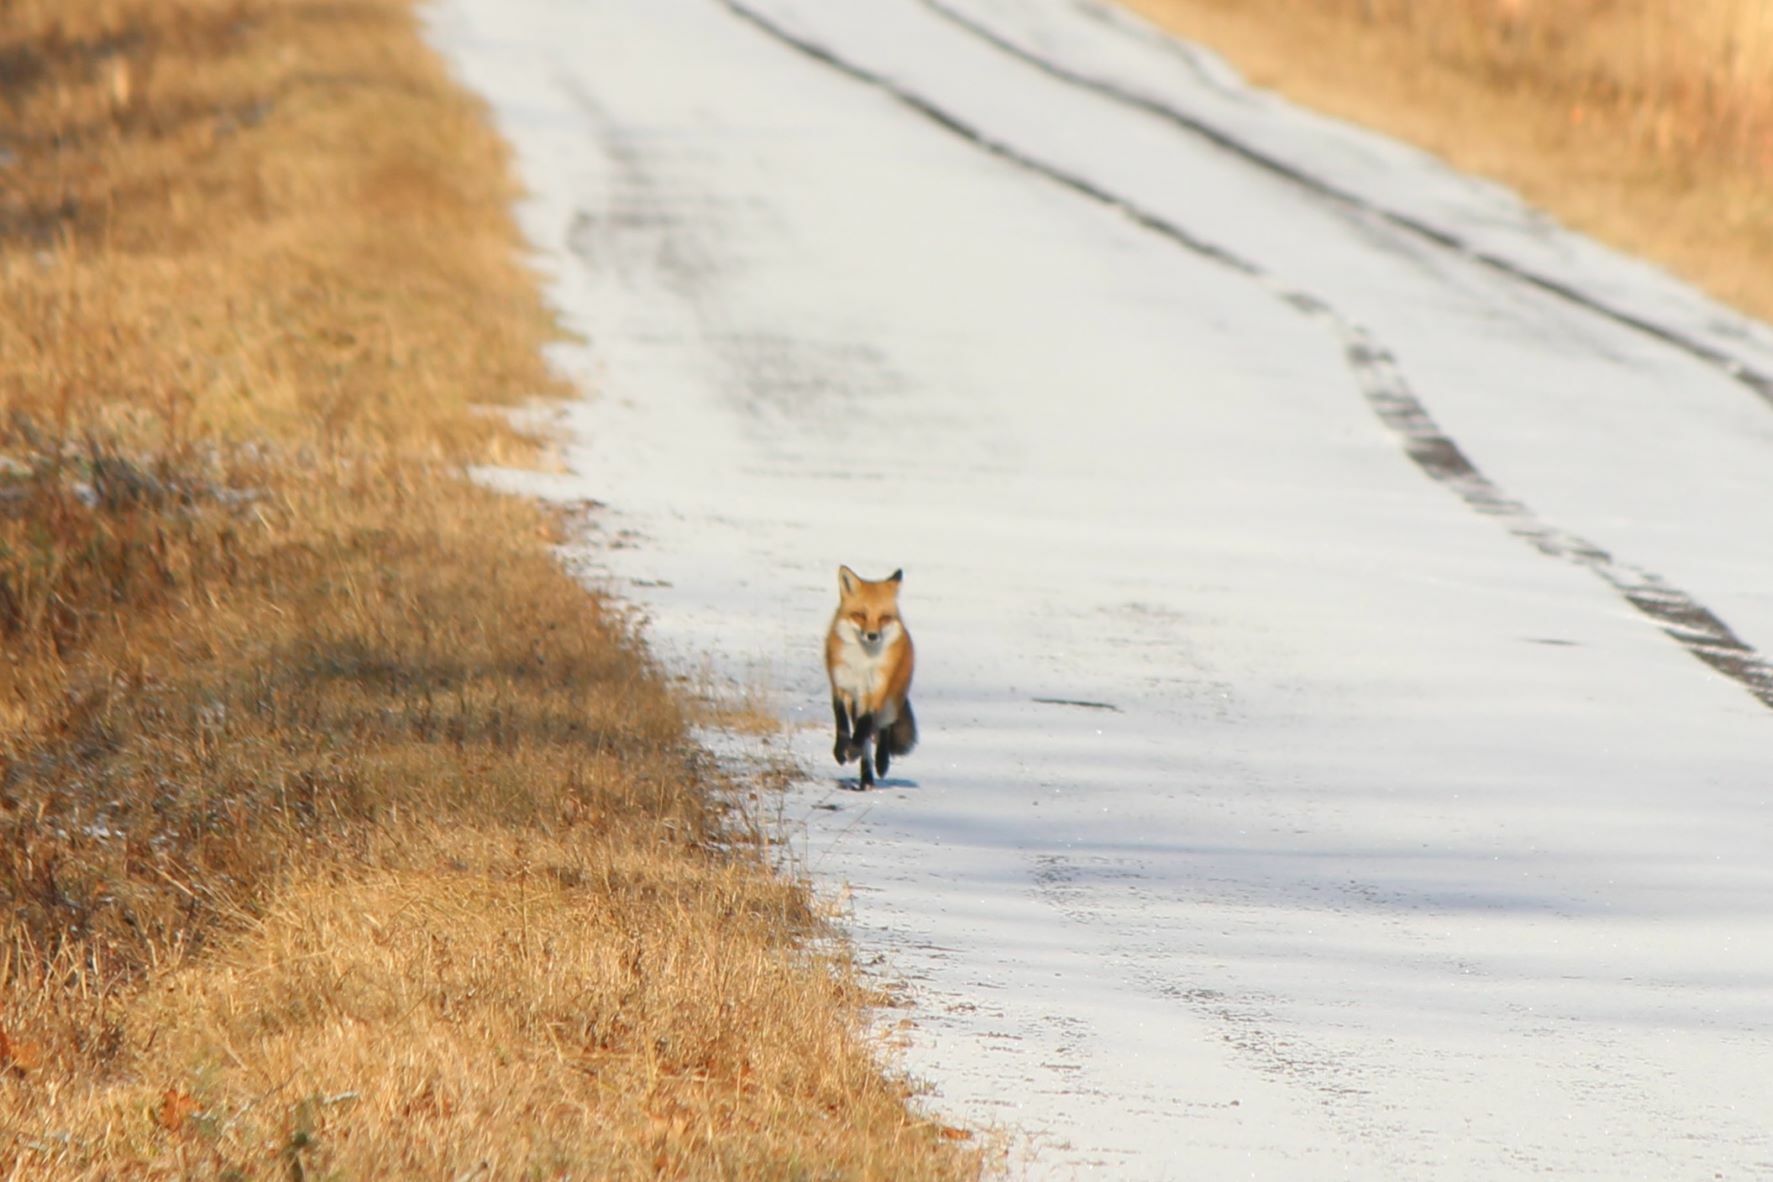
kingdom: Animalia
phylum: Chordata
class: Mammalia
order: Carnivora
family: Canidae
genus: Vulpes
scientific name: Vulpes vulpes
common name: Red fox
